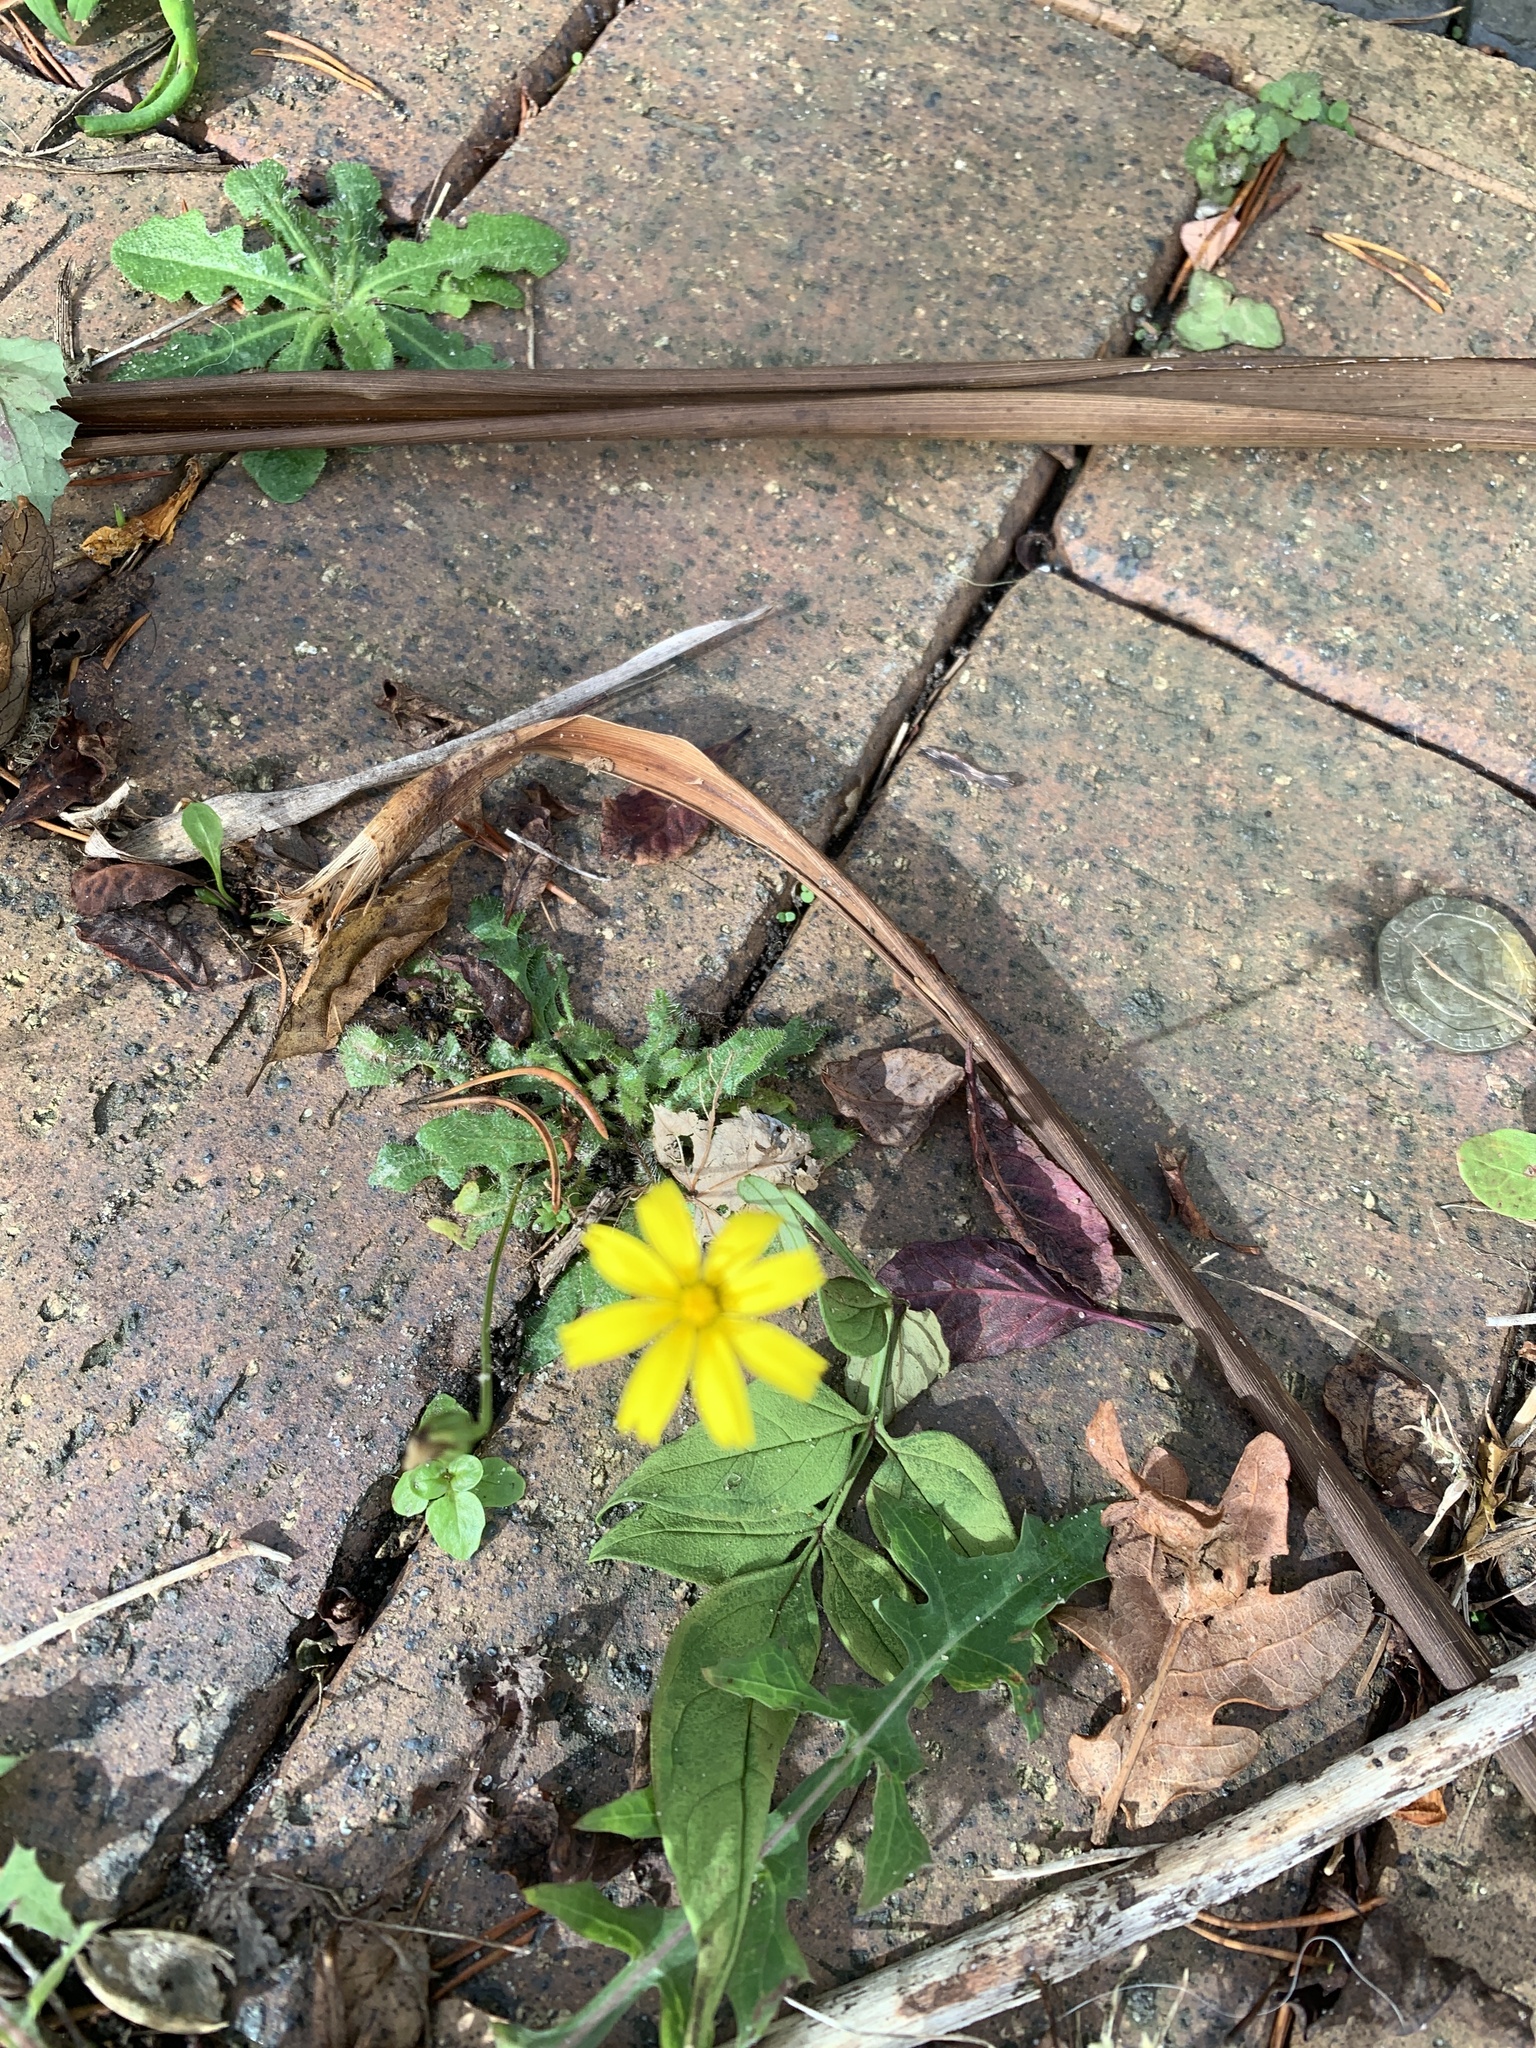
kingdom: Plantae
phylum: Tracheophyta
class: Magnoliopsida
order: Asterales
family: Asteraceae
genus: Lapsana
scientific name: Lapsana communis
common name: Nipplewort
